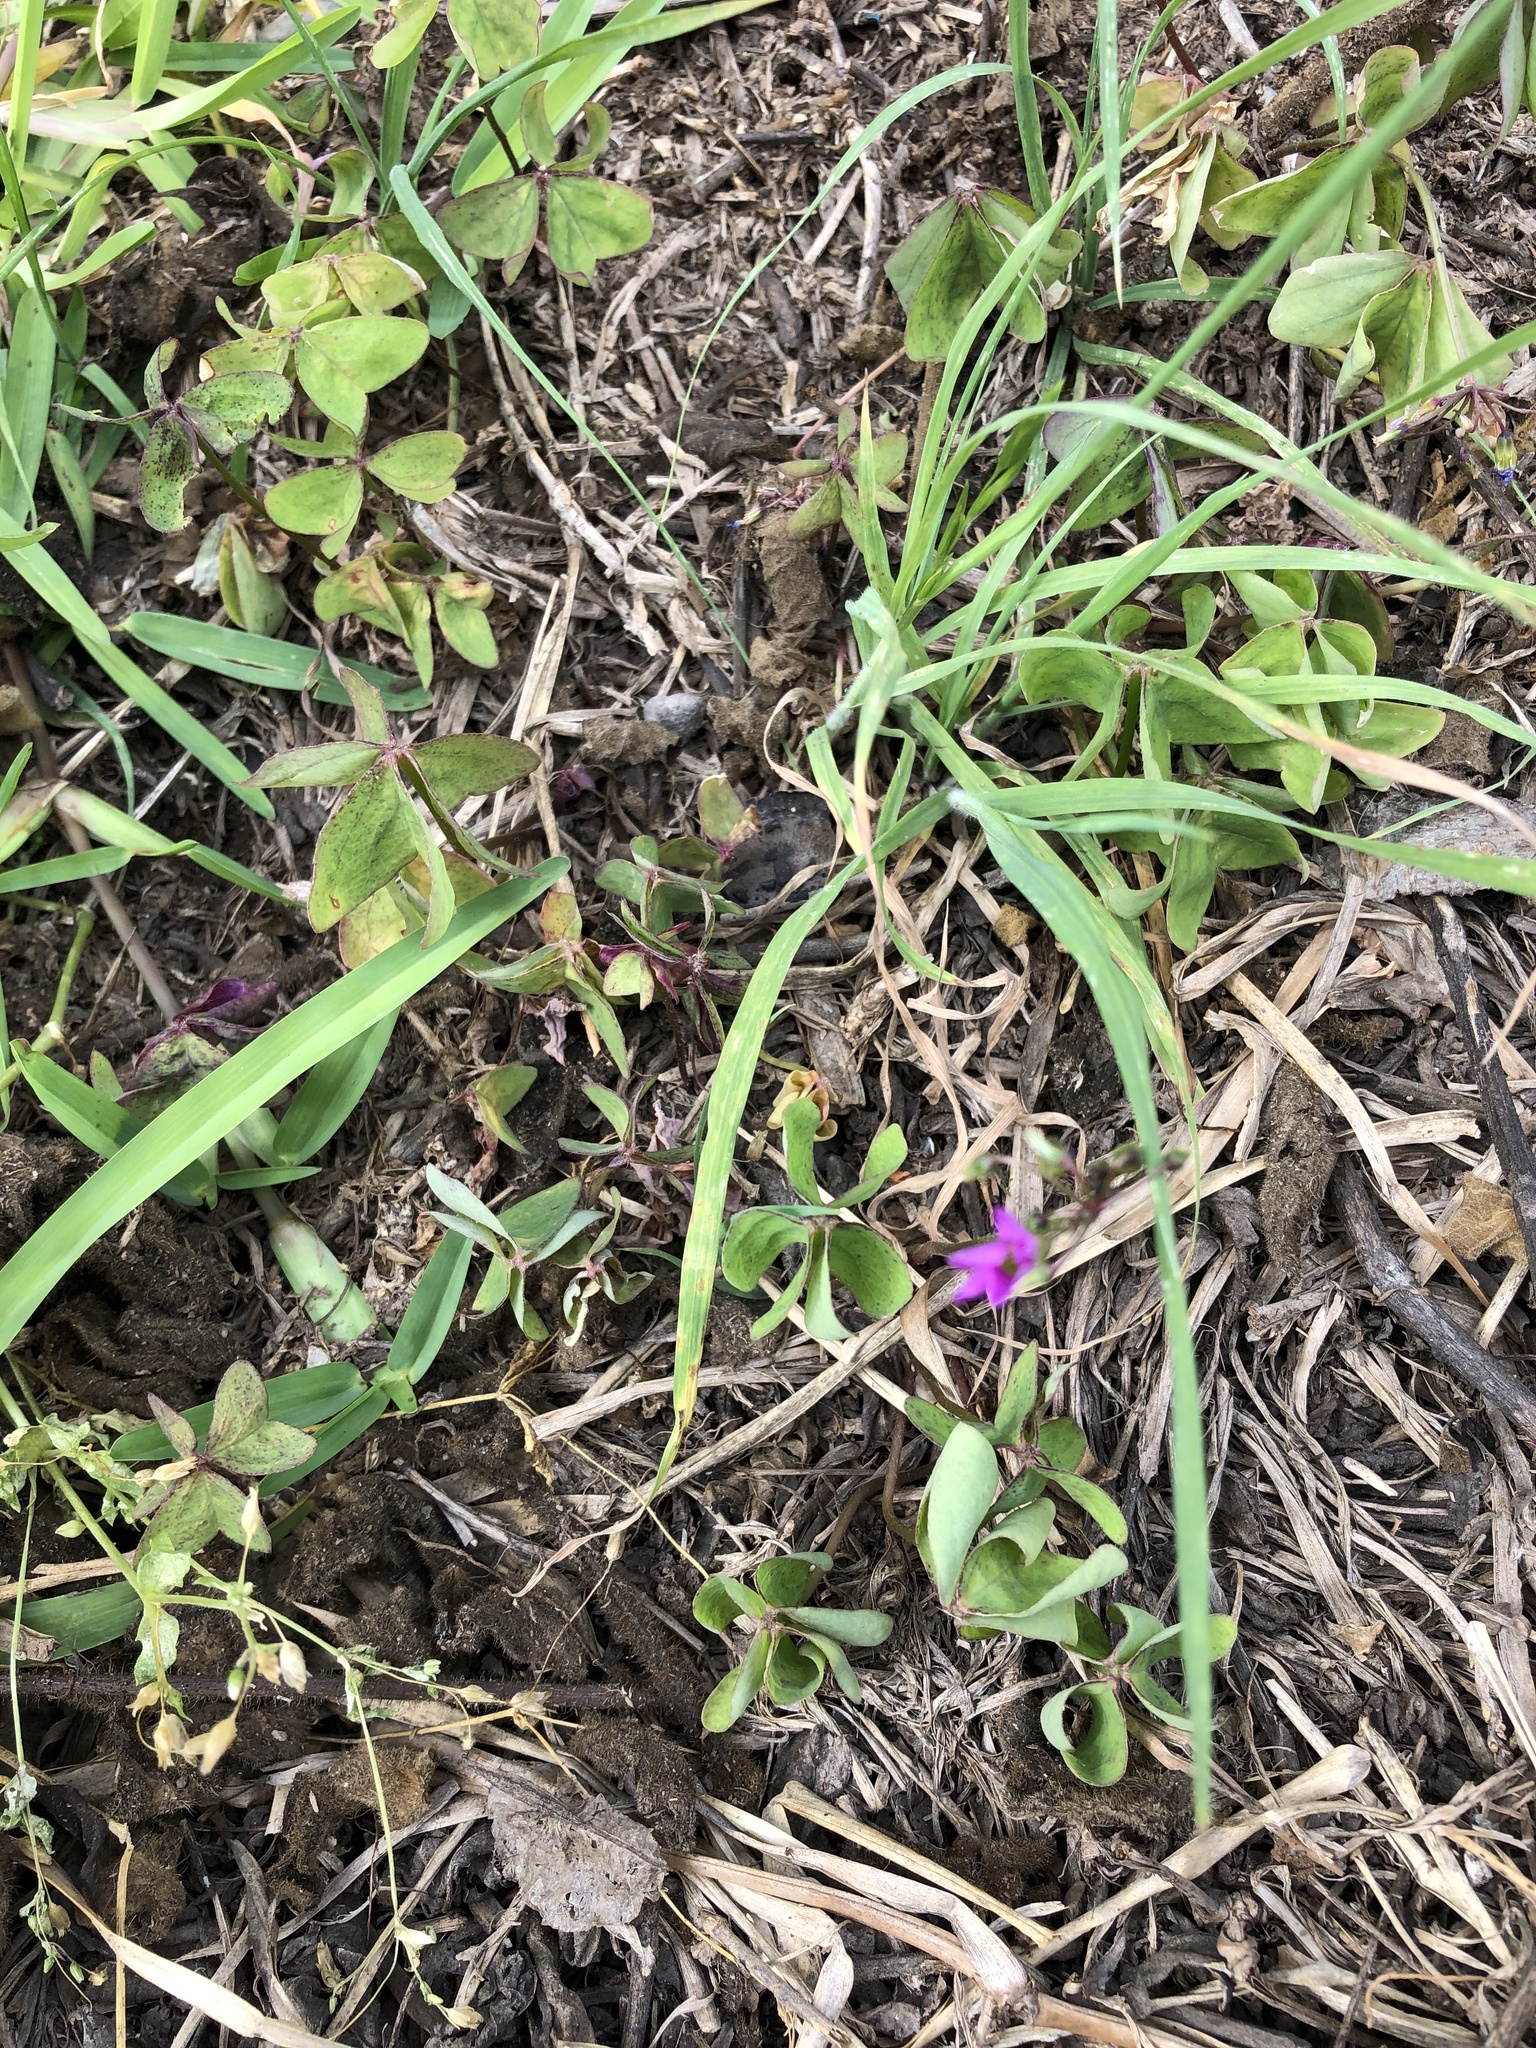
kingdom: Plantae
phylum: Tracheophyta
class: Magnoliopsida
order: Oxalidales
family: Oxalidaceae
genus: Oxalis
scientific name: Oxalis latifolia
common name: Garden pink-sorrel
